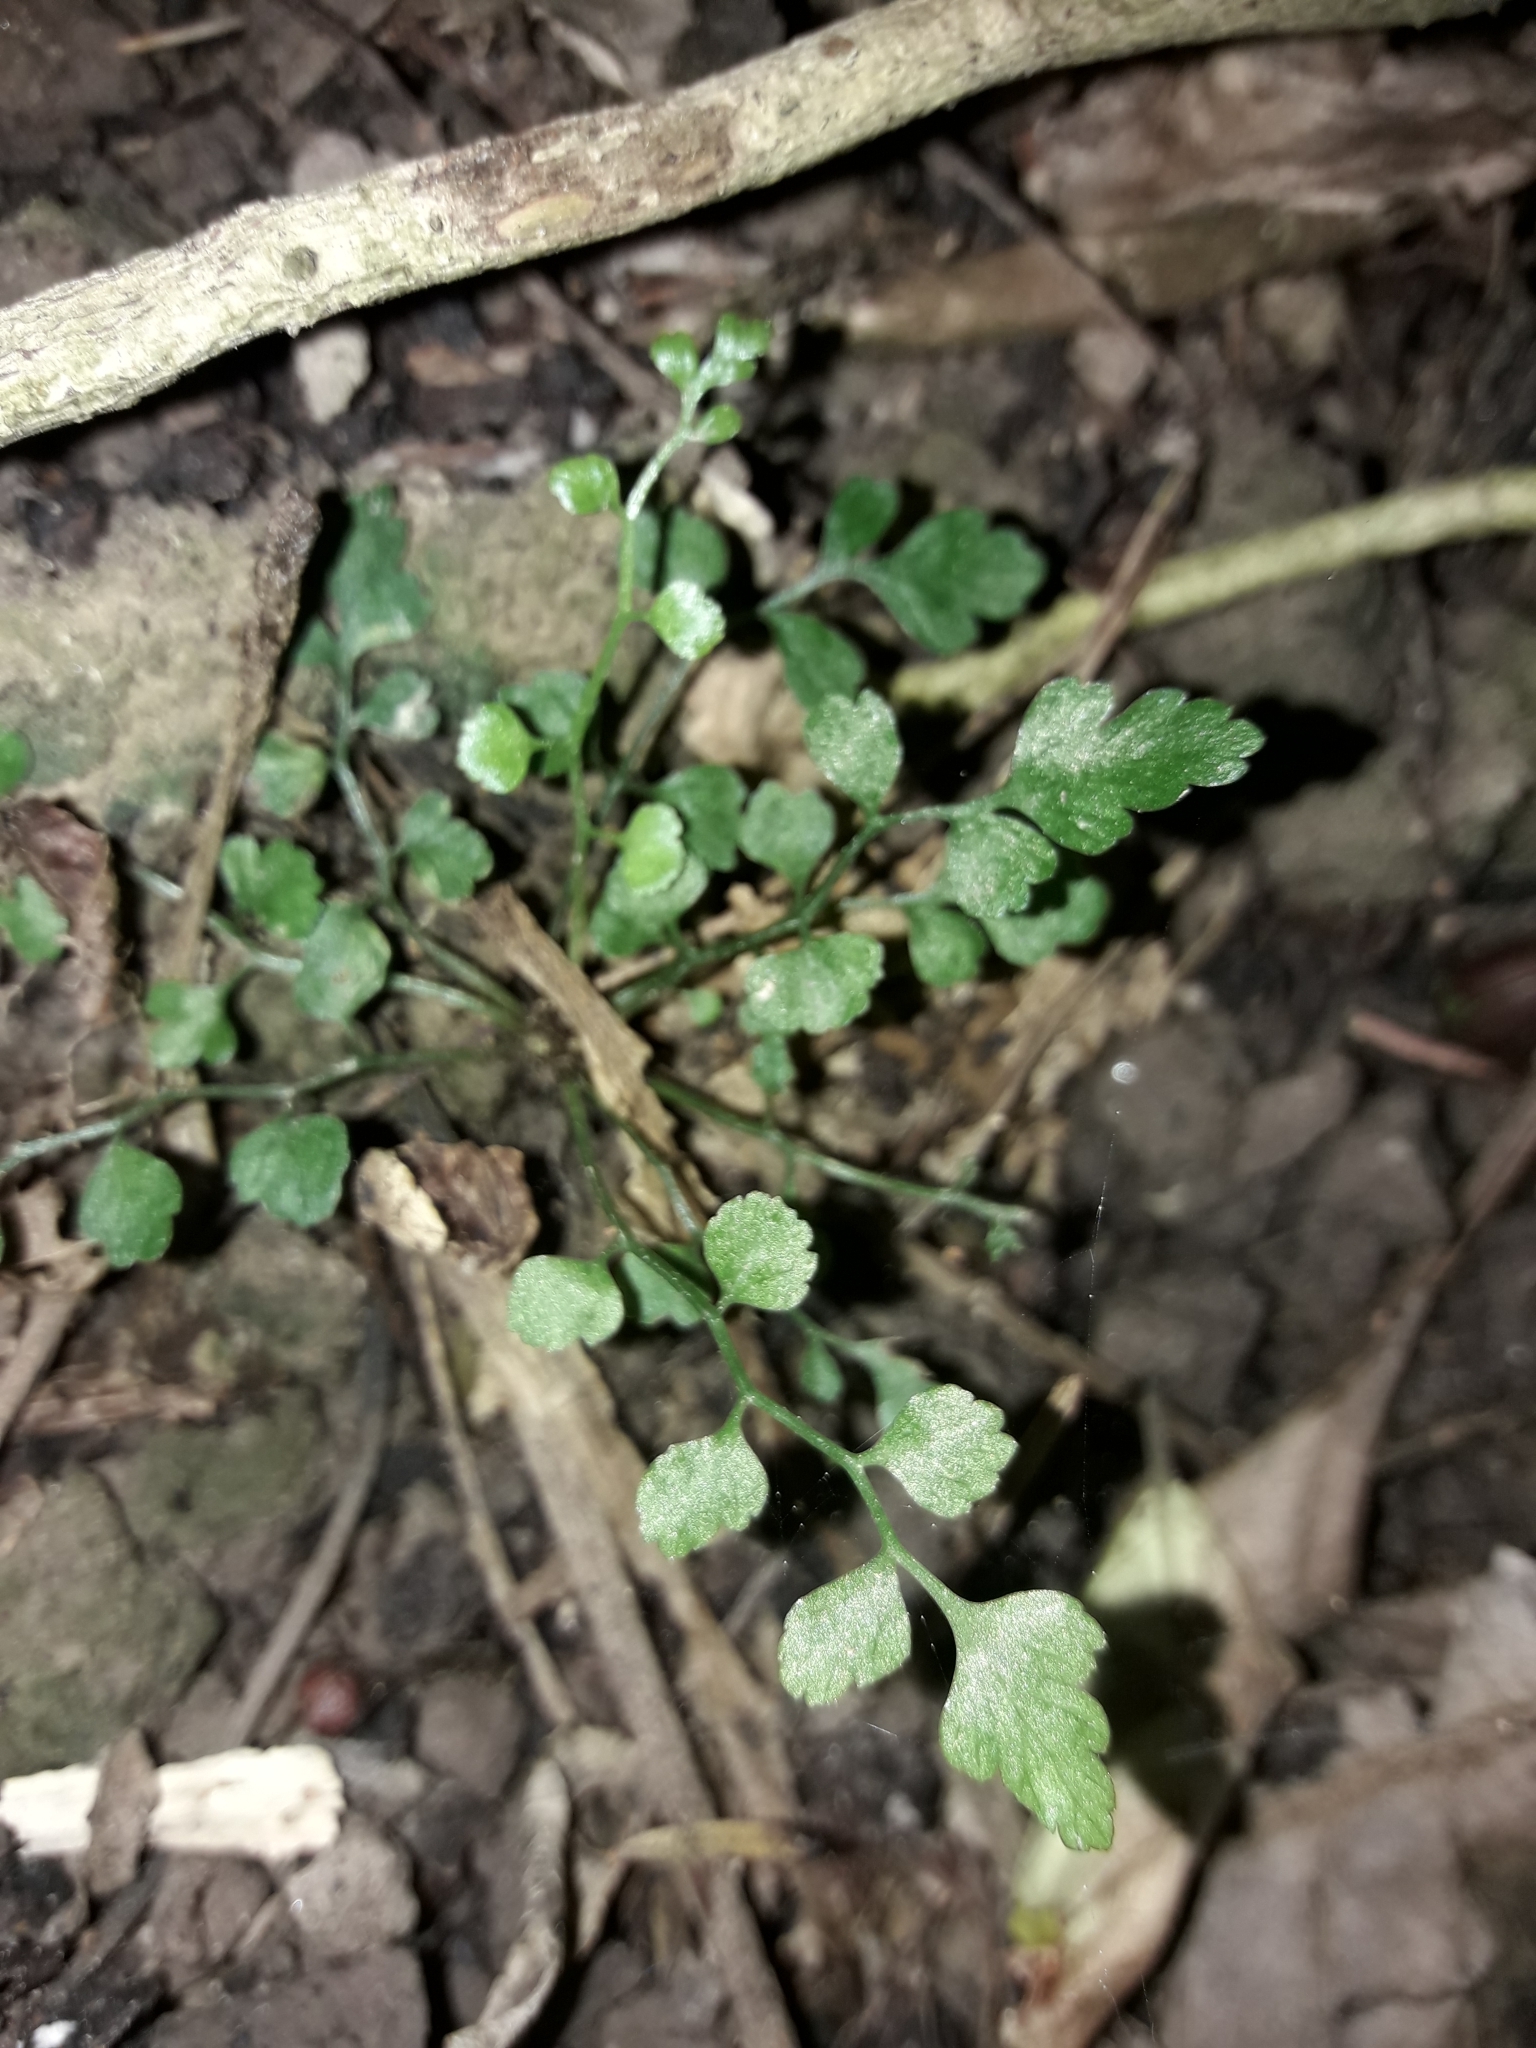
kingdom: Plantae
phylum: Tracheophyta
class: Polypodiopsida
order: Polypodiales
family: Aspleniaceae
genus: Asplenium
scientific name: Asplenium hookerianum
